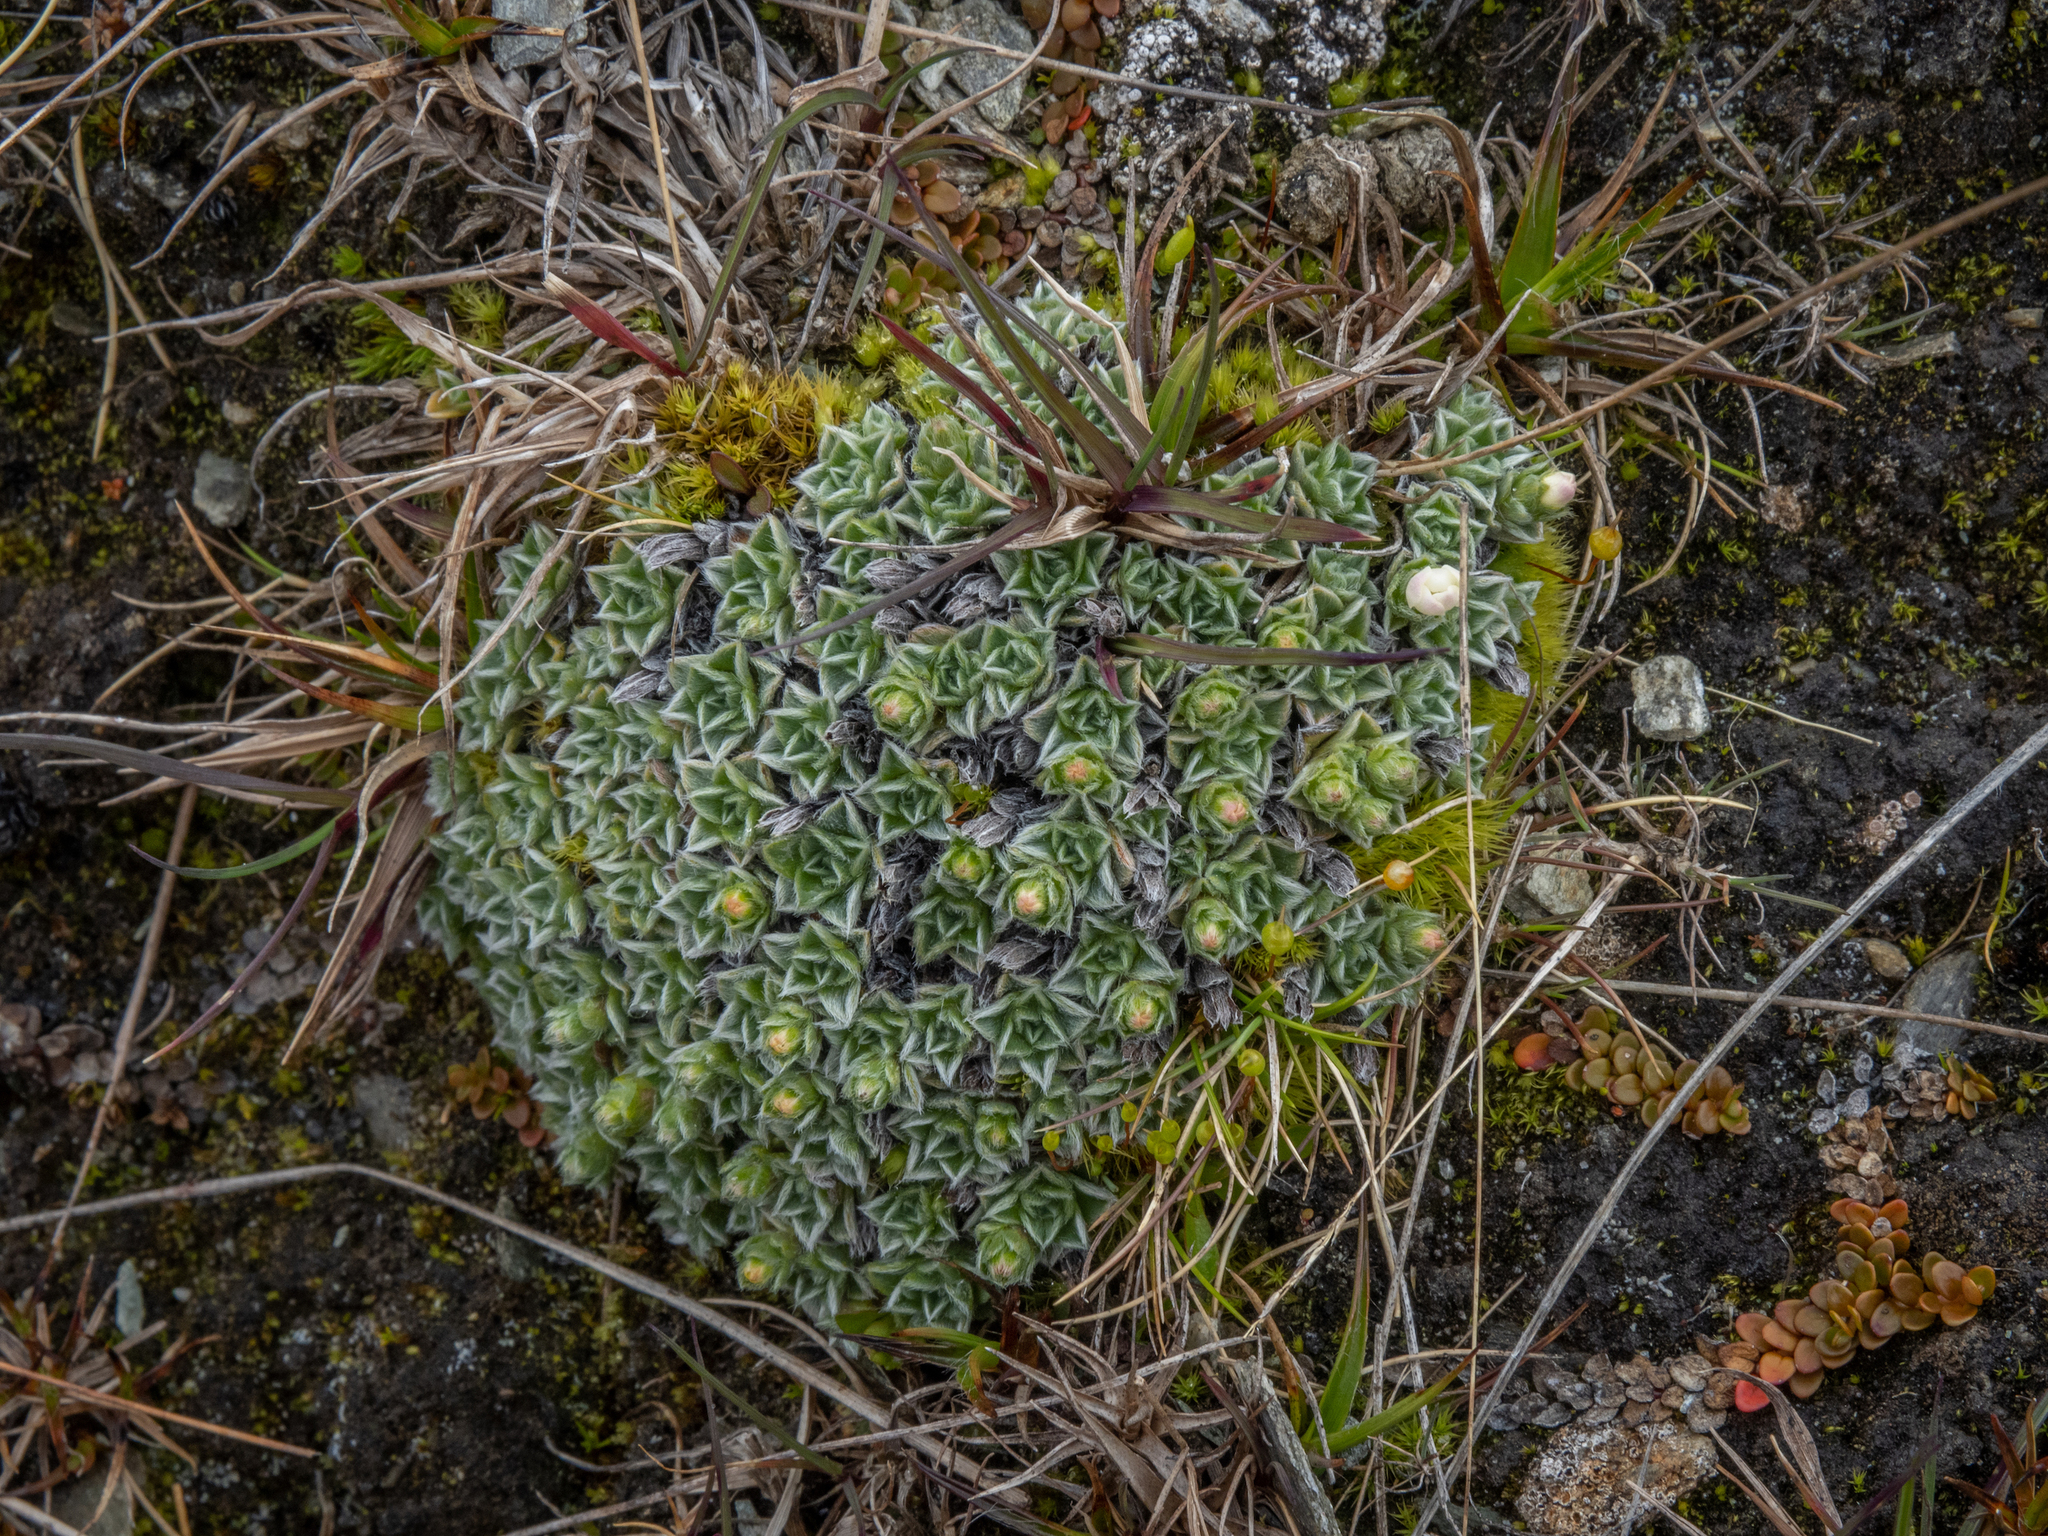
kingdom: Plantae
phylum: Tracheophyta
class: Magnoliopsida
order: Boraginales
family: Boraginaceae
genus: Myosotis
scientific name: Myosotis pulvinaris
